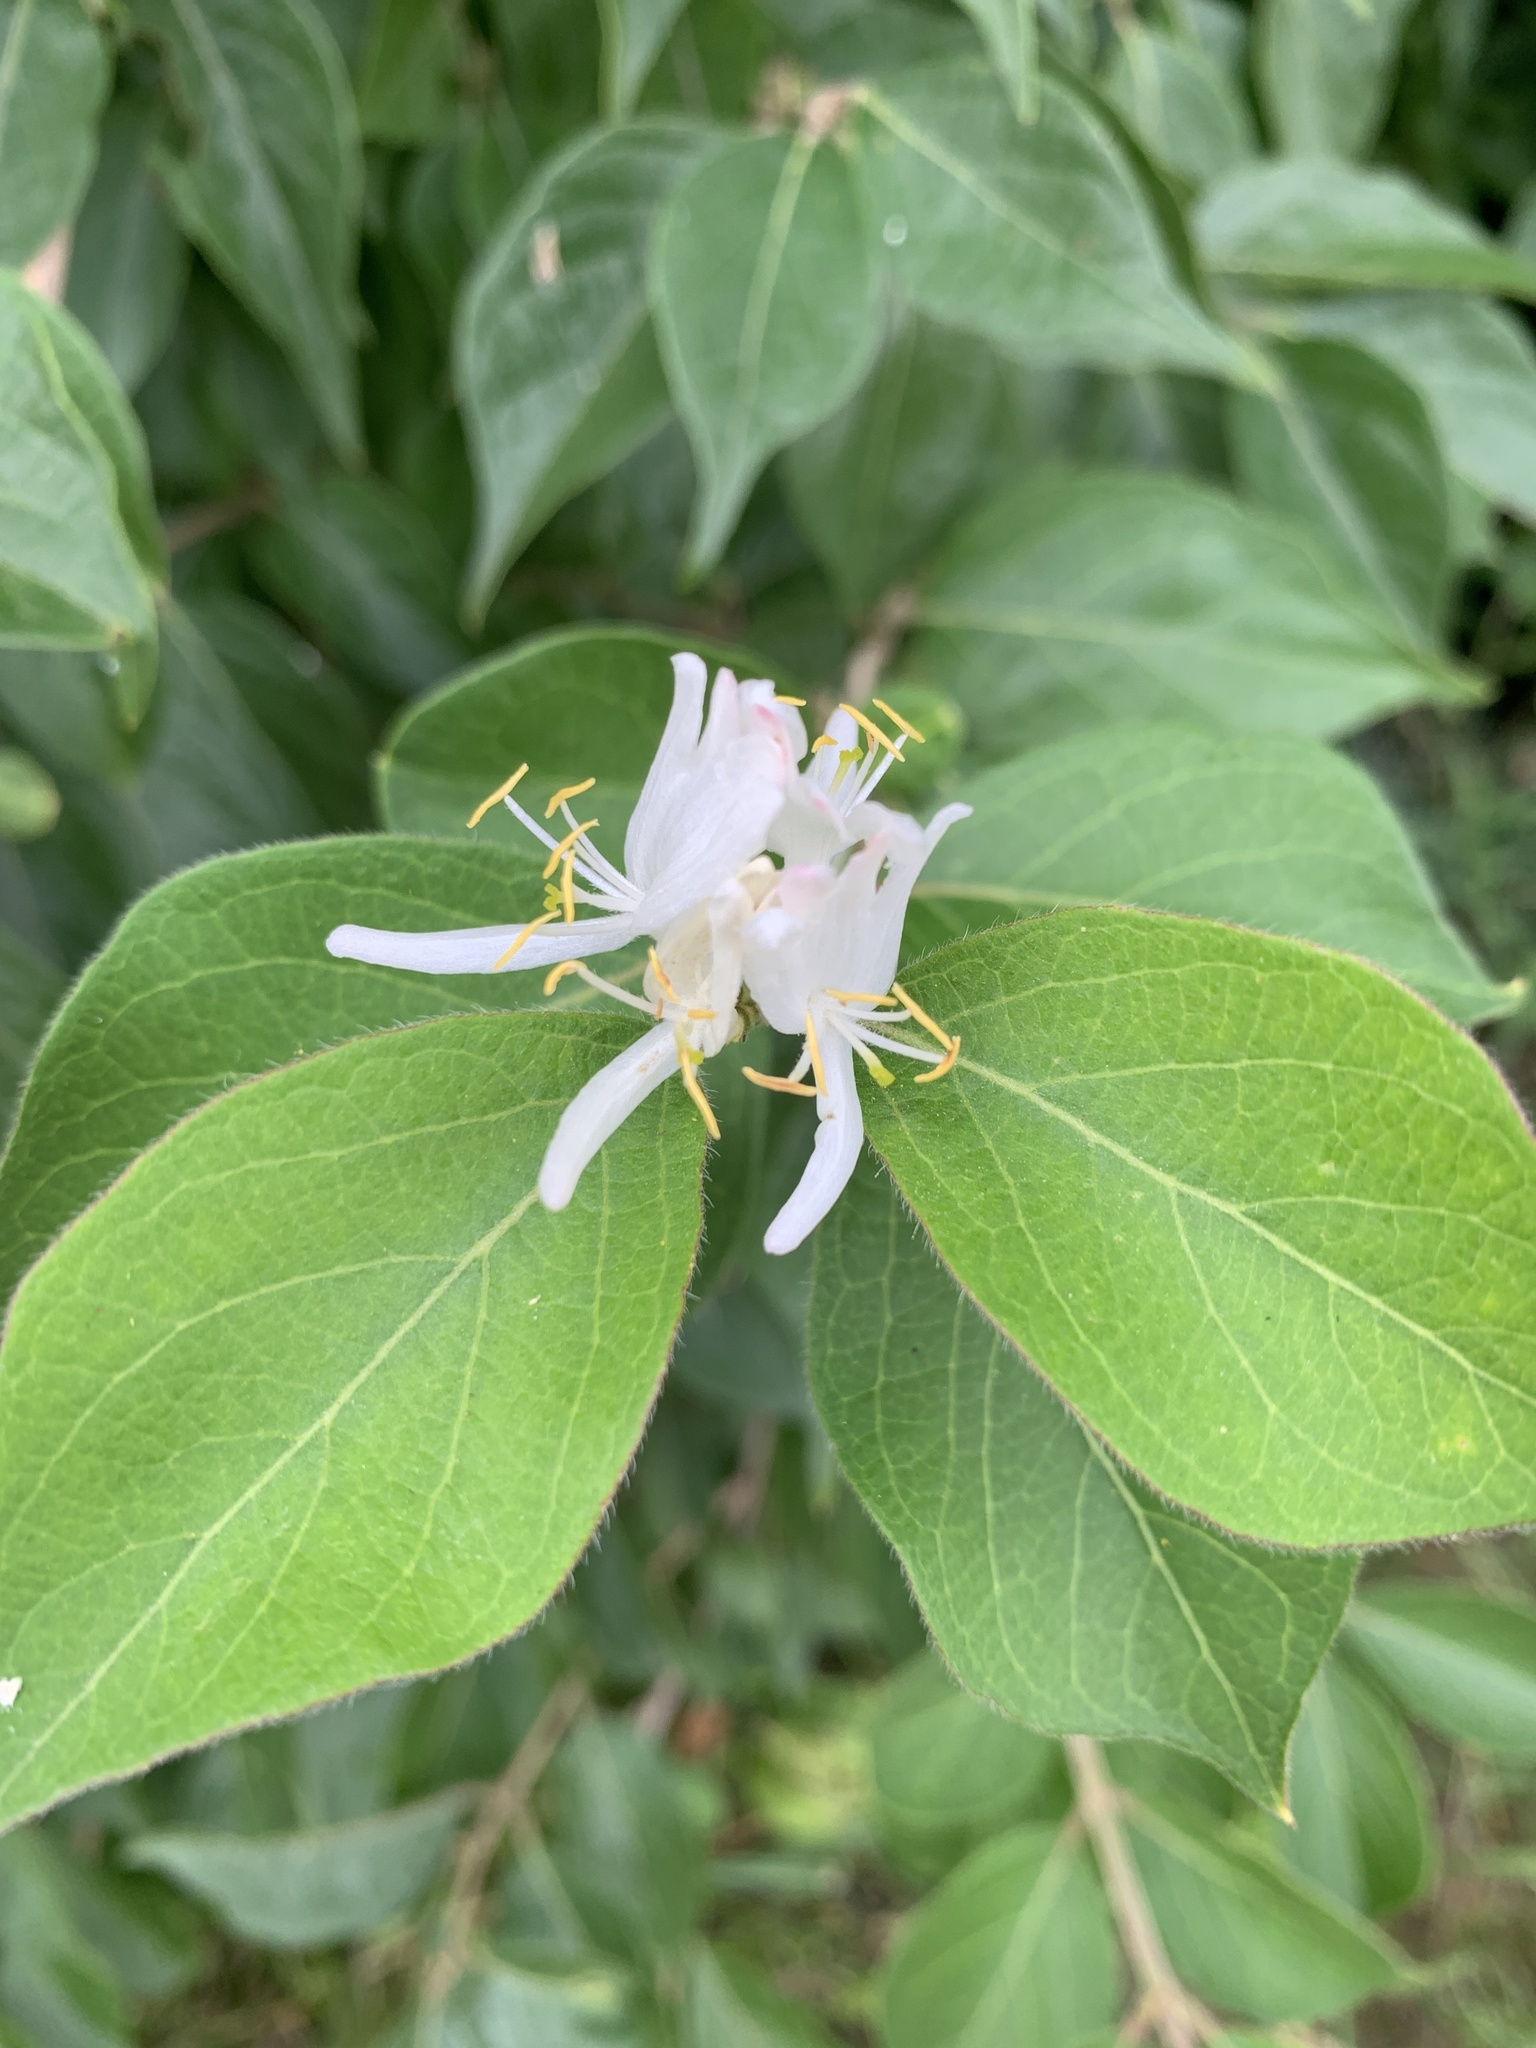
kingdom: Plantae
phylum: Tracheophyta
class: Magnoliopsida
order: Dipsacales
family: Caprifoliaceae
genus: Lonicera
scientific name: Lonicera maackii
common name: Amur honeysuckle
